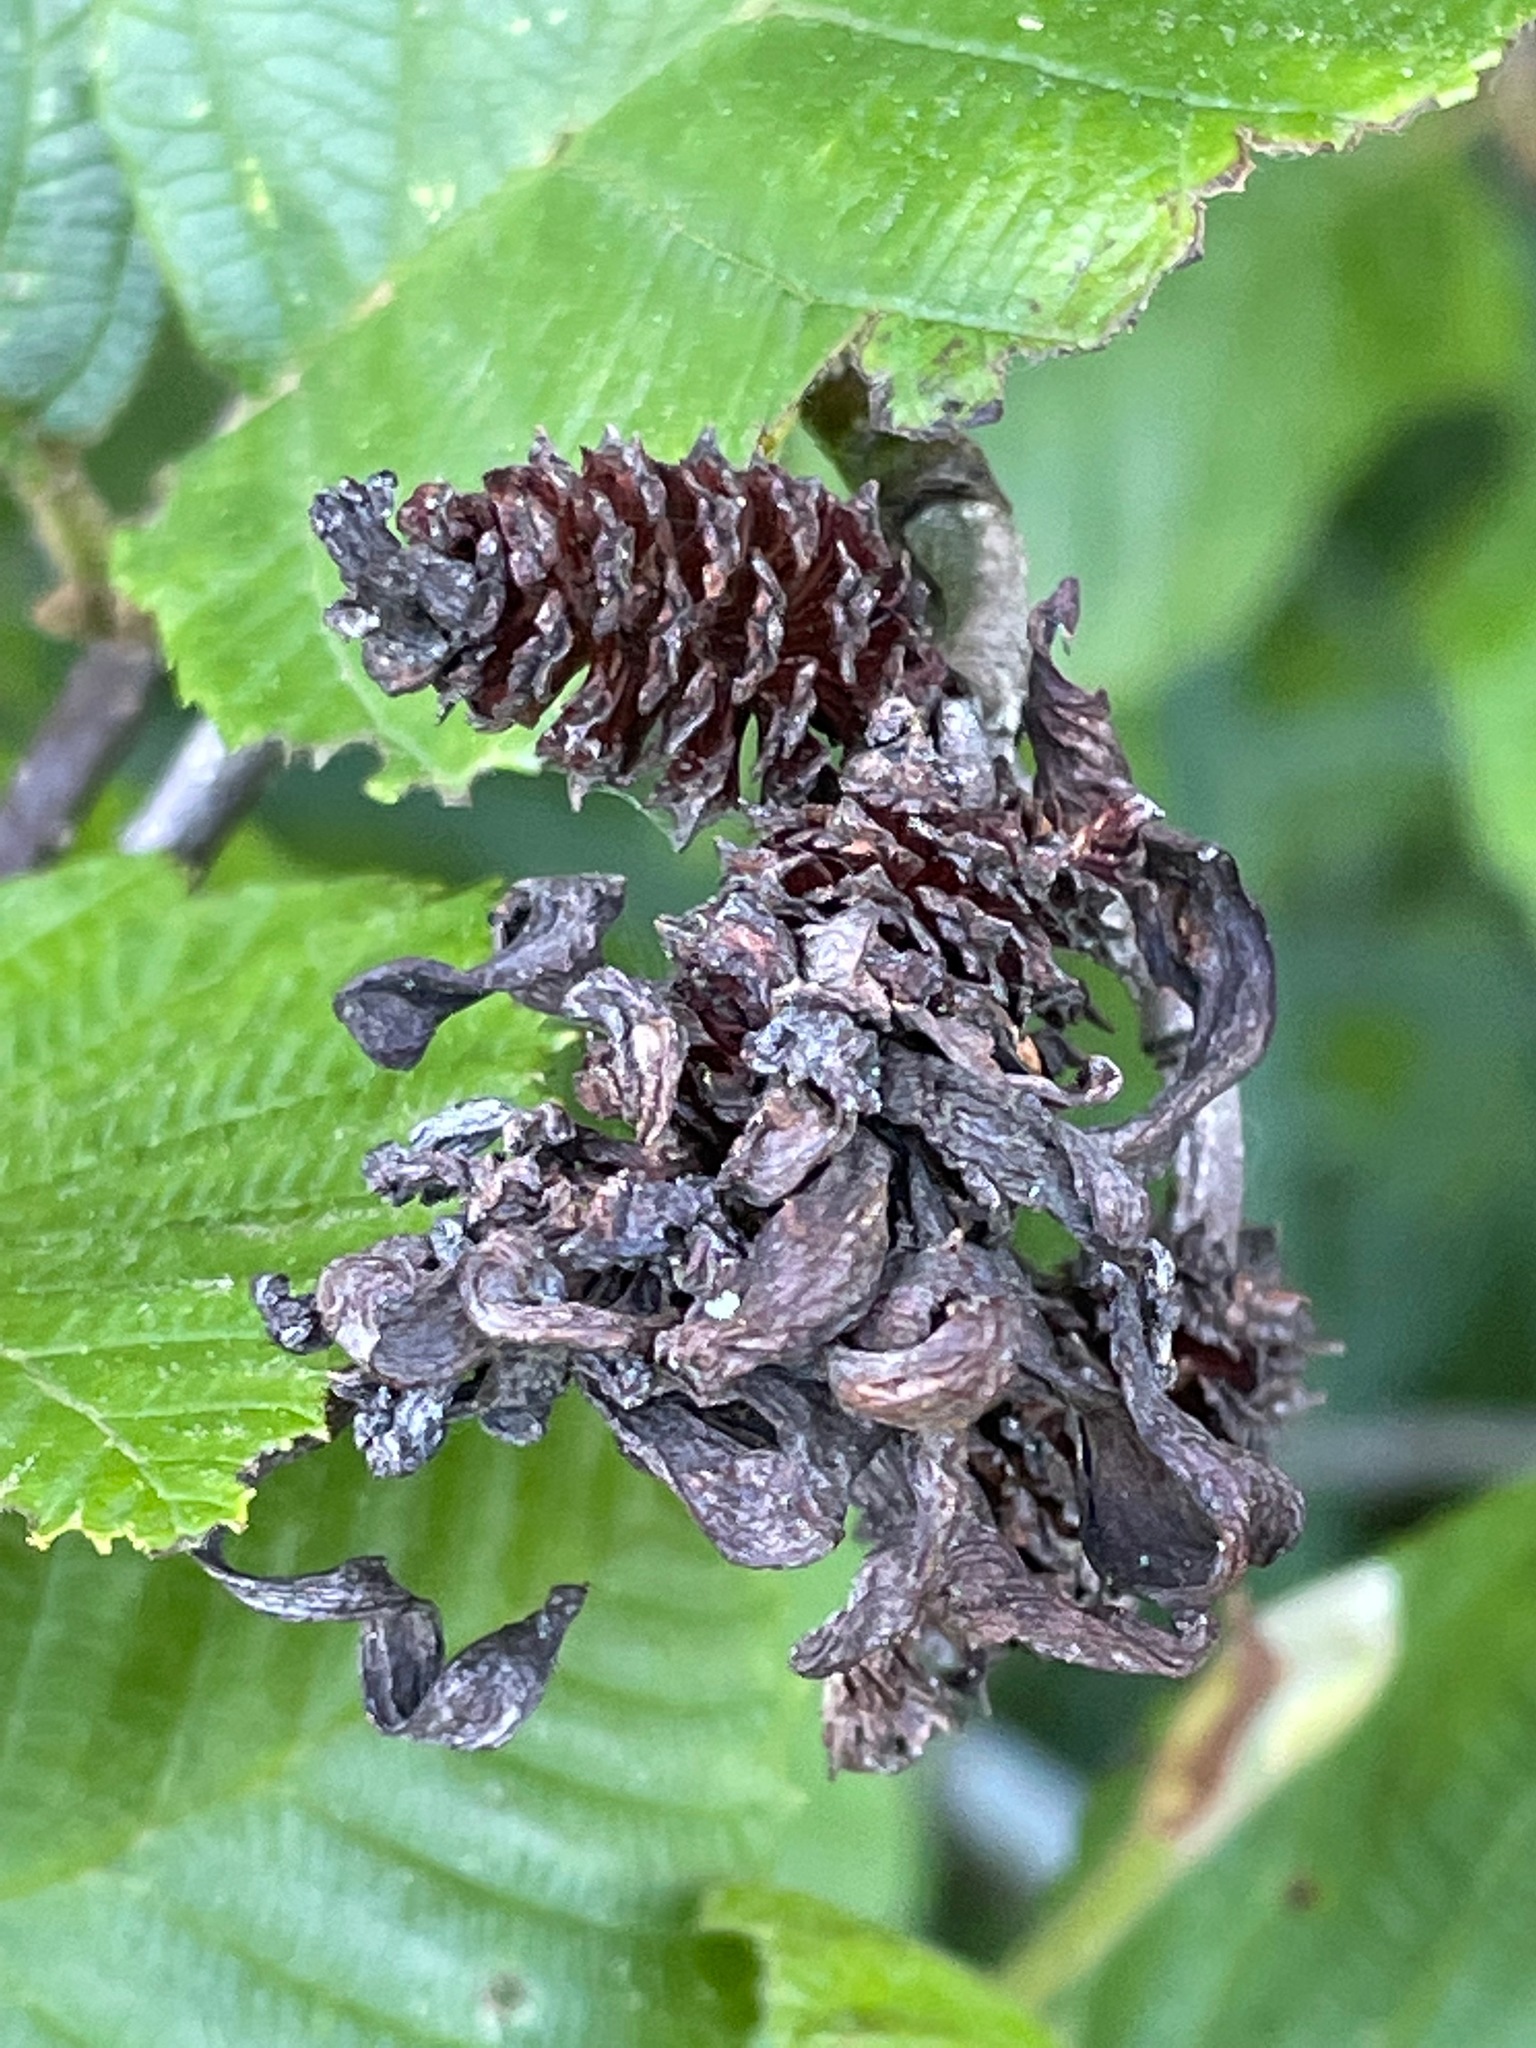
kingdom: Fungi
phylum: Ascomycota
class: Taphrinomycetes
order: Taphrinales
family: Taphrinaceae
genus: Taphrina
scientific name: Taphrina robinsoniana
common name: Eastern american alder tongue gall fungus
